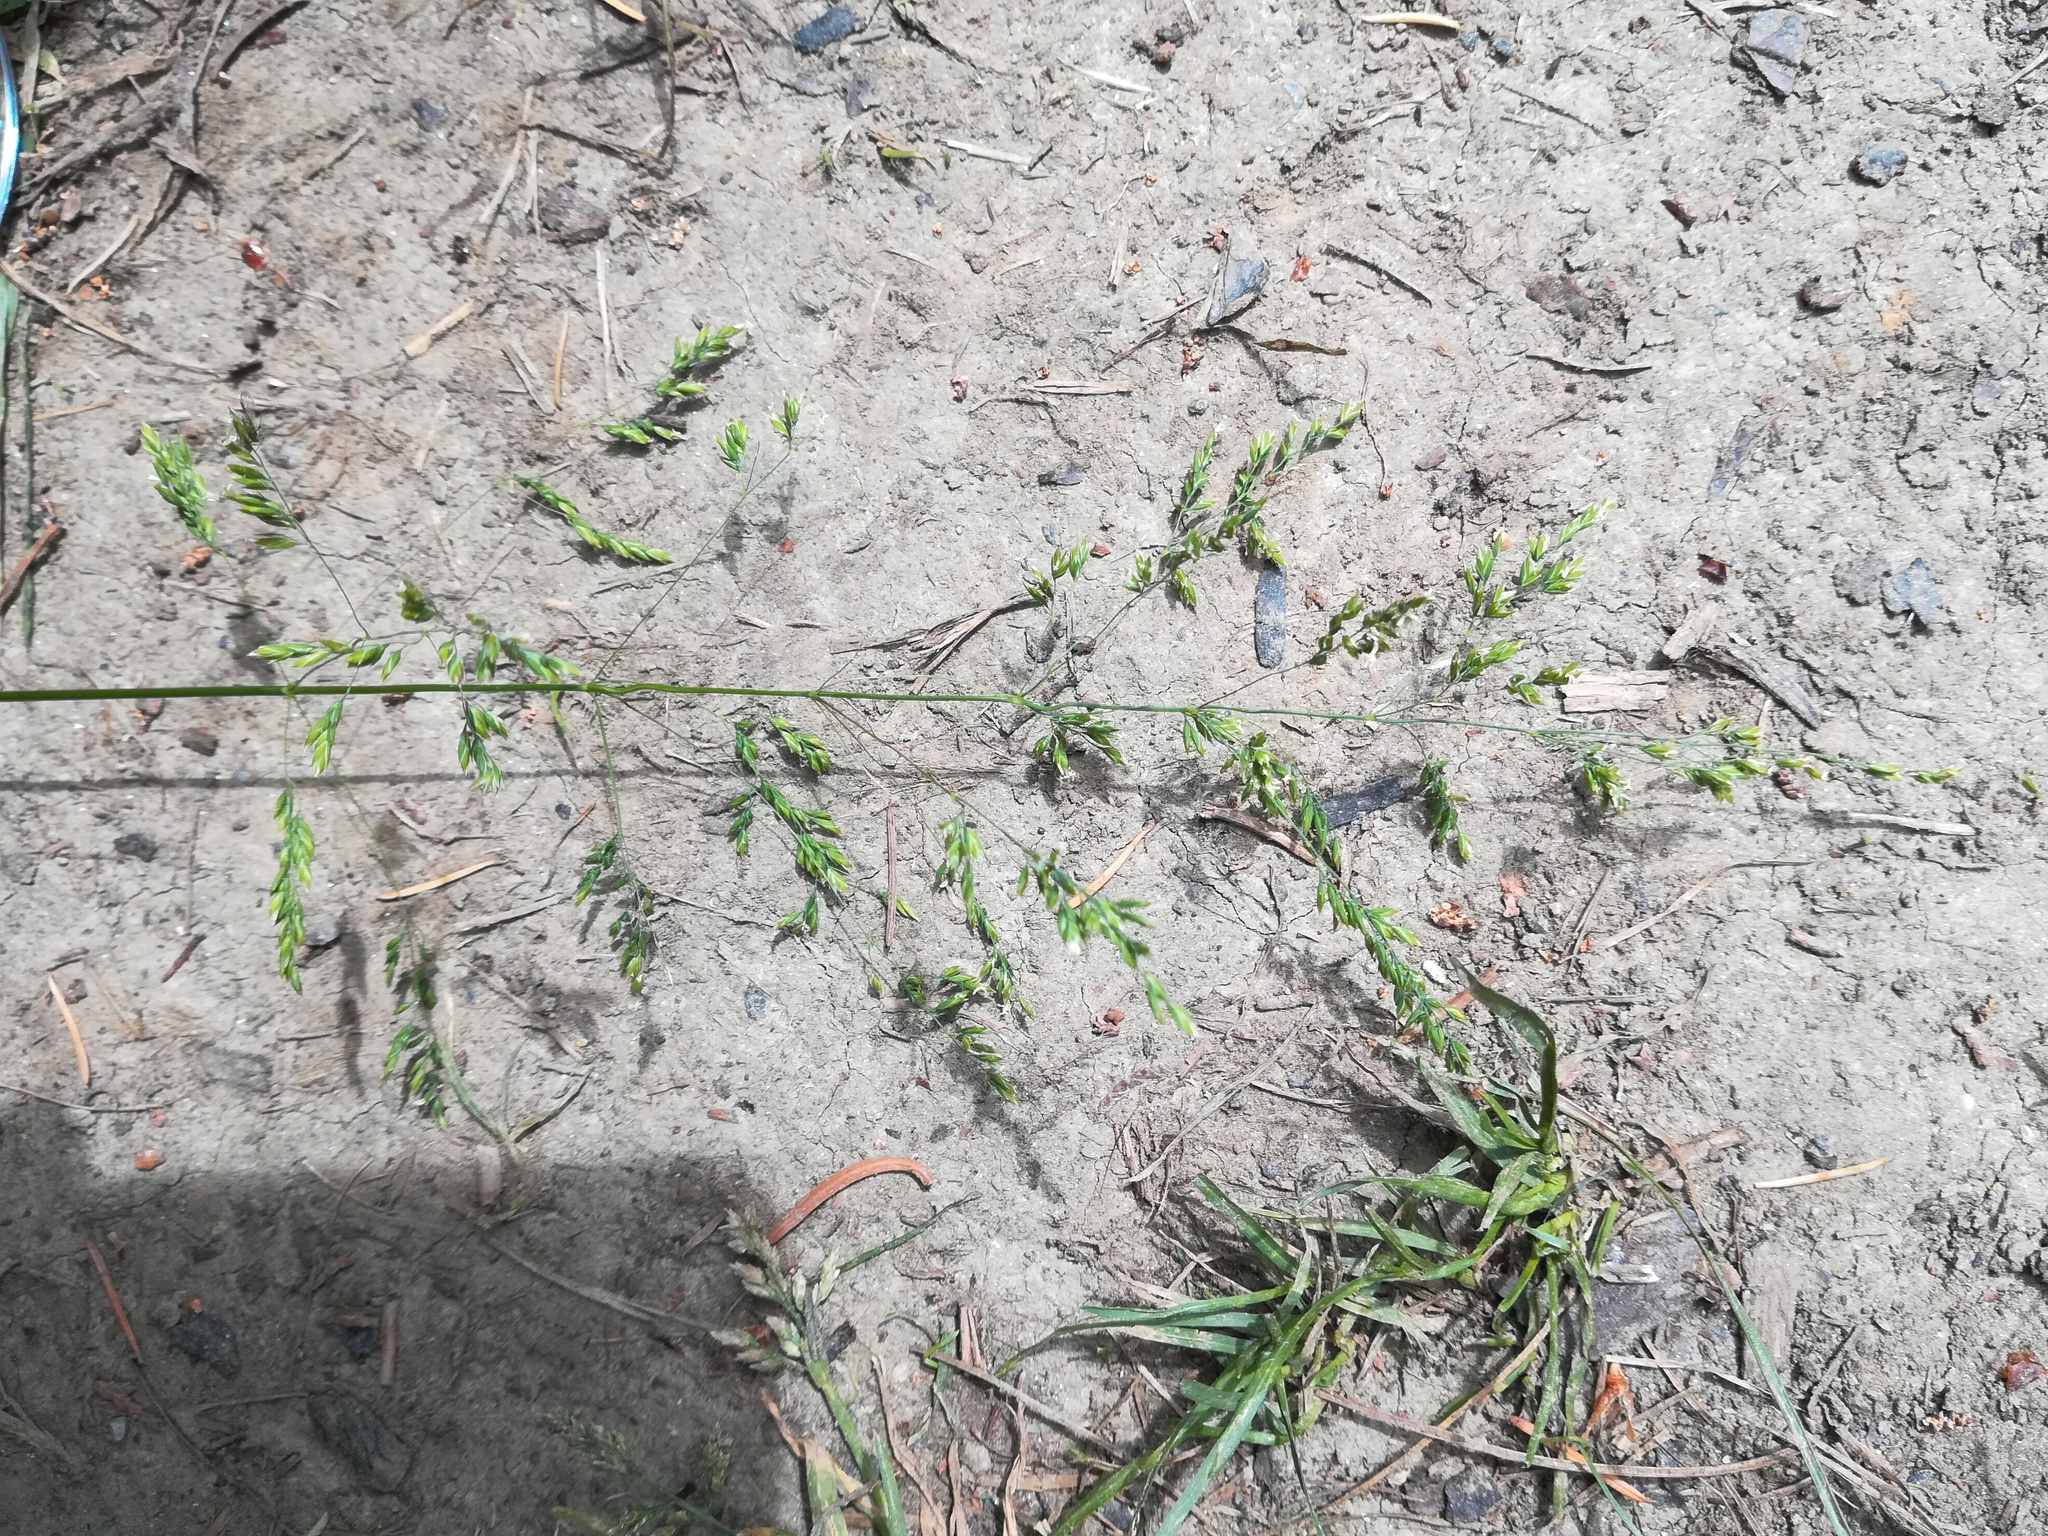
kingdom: Plantae
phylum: Tracheophyta
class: Liliopsida
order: Poales
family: Poaceae
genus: Poa
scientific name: Poa trivialis
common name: Rough bluegrass
